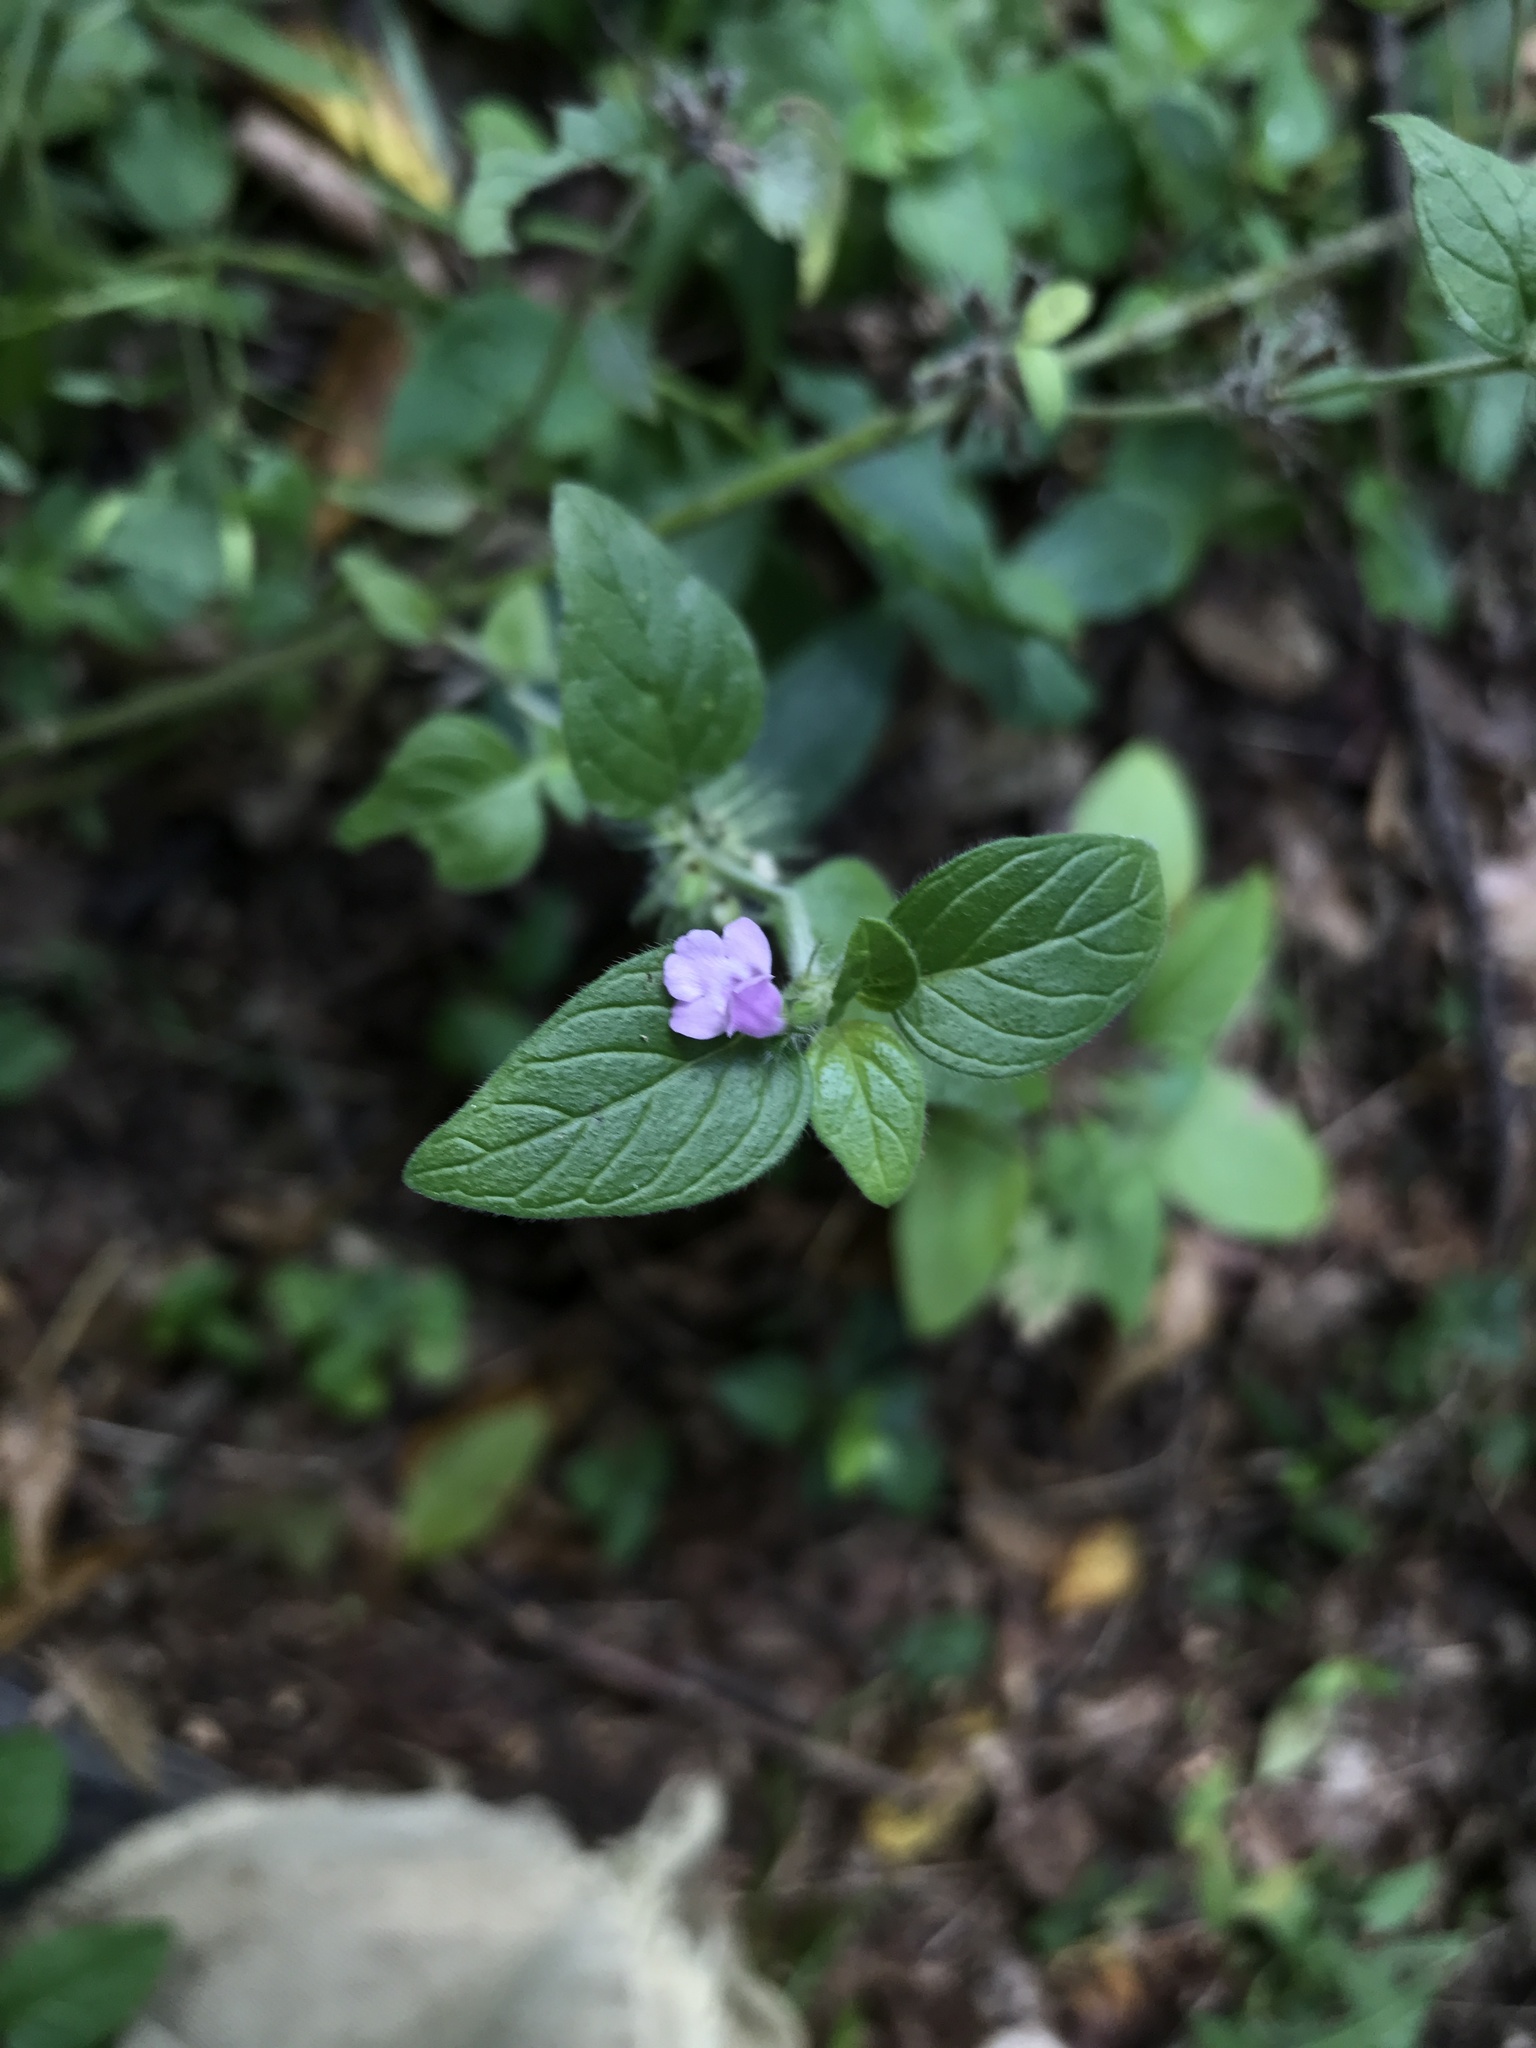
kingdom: Plantae
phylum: Tracheophyta
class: Magnoliopsida
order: Lamiales
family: Lamiaceae
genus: Clinopodium
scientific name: Clinopodium vulgare
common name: Wild basil
